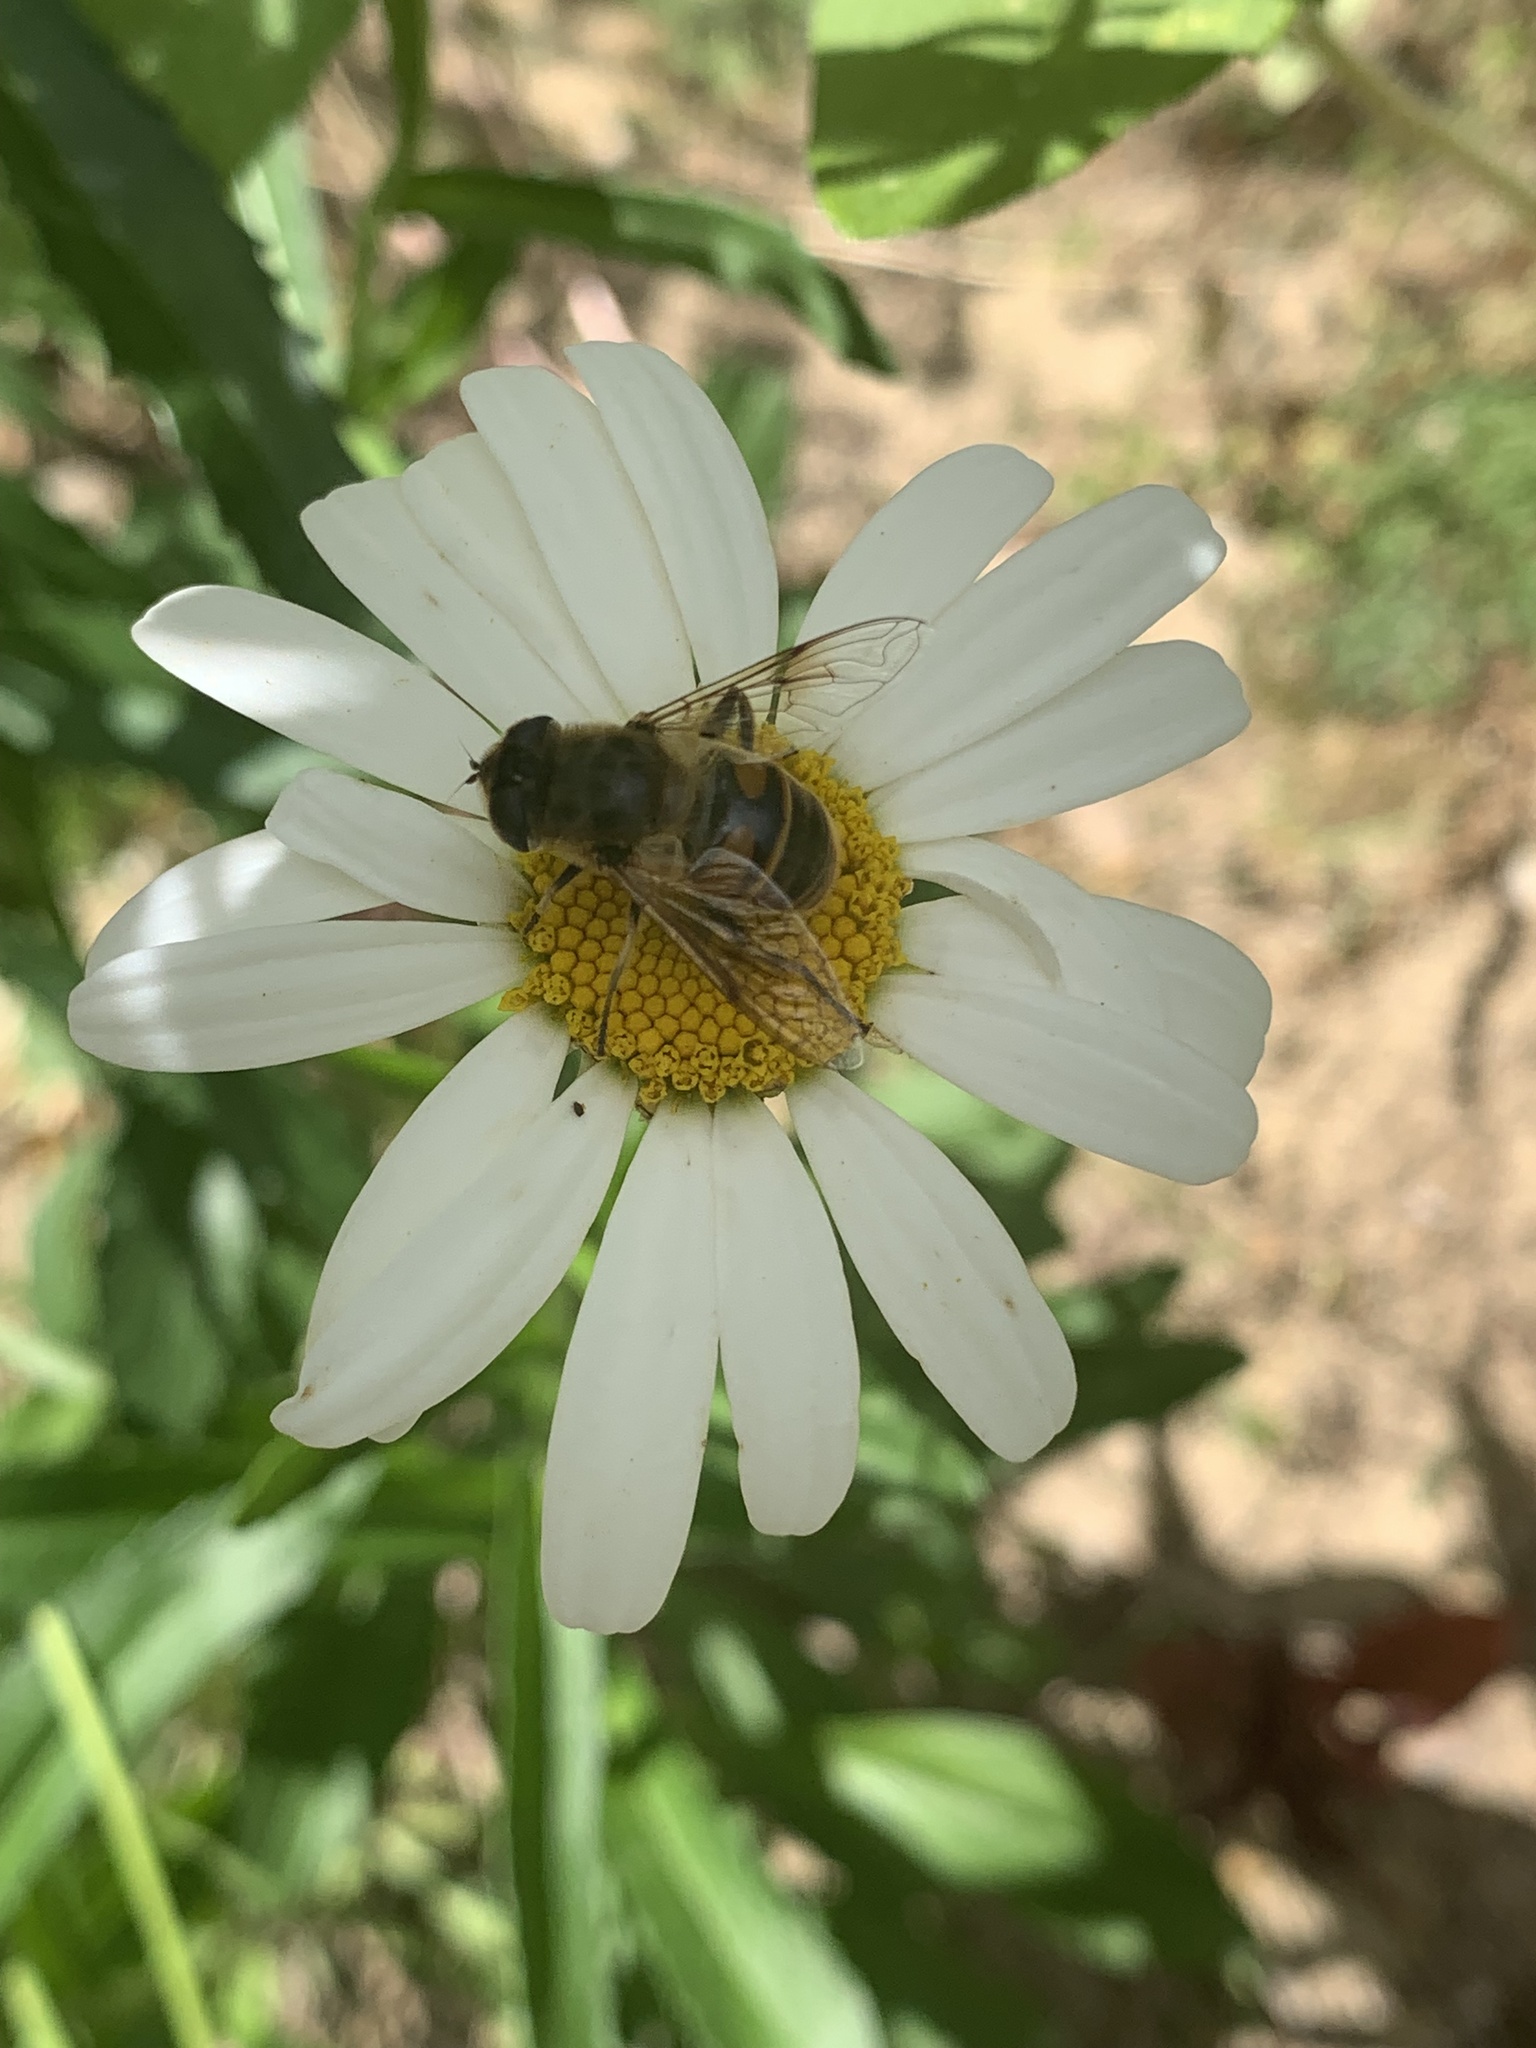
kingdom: Animalia
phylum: Arthropoda
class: Insecta
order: Diptera
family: Syrphidae
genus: Eristalis
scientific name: Eristalis tenax
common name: Drone fly
